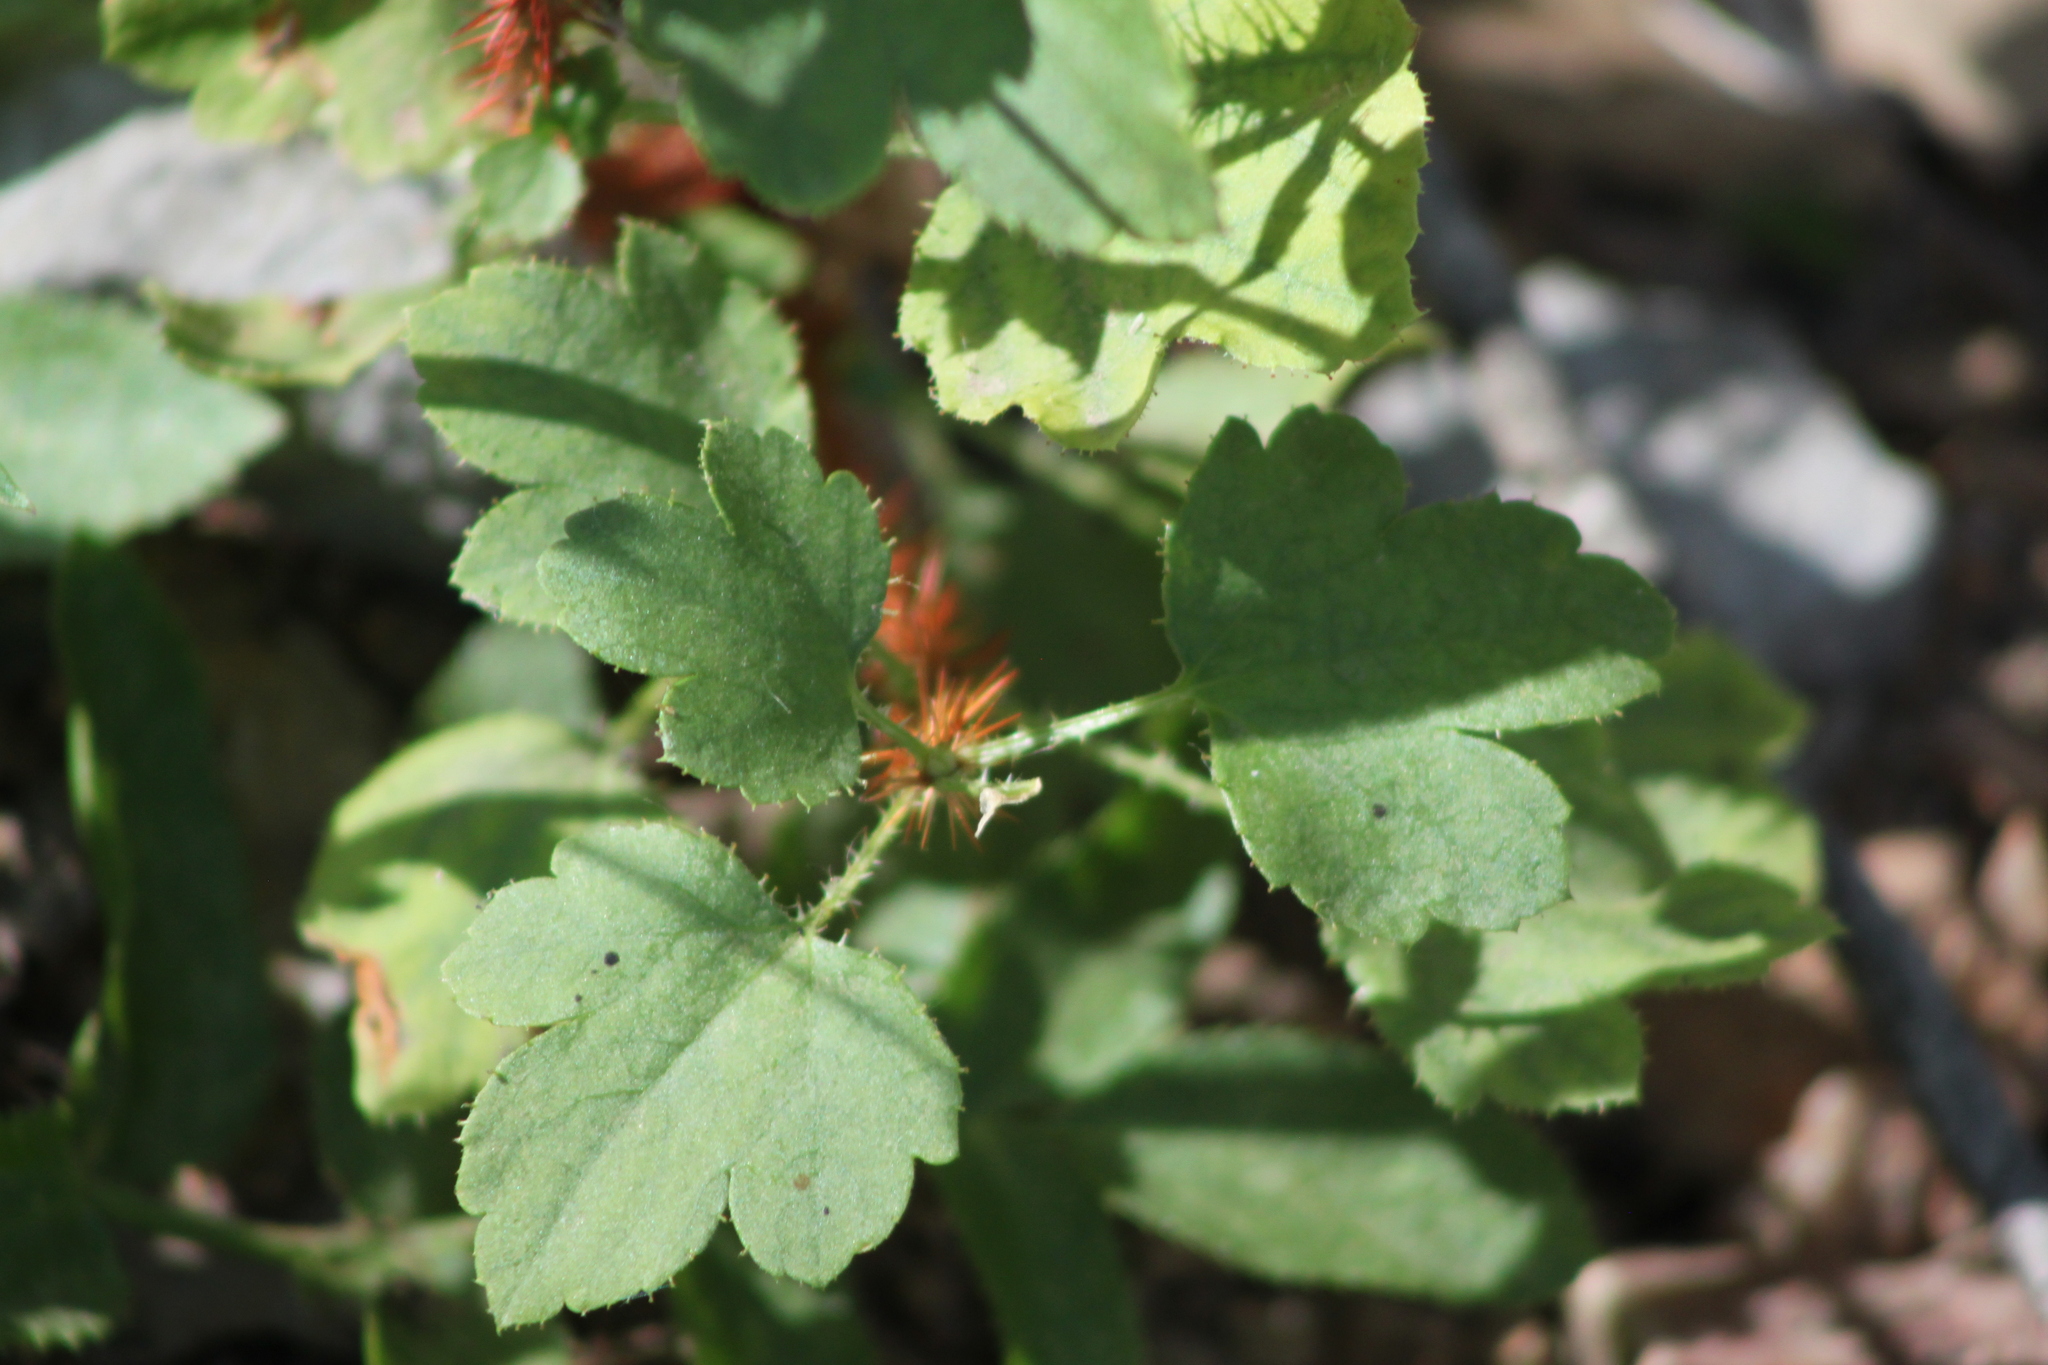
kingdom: Plantae
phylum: Tracheophyta
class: Magnoliopsida
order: Saxifragales
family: Grossulariaceae
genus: Ribes
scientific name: Ribes aciculare
